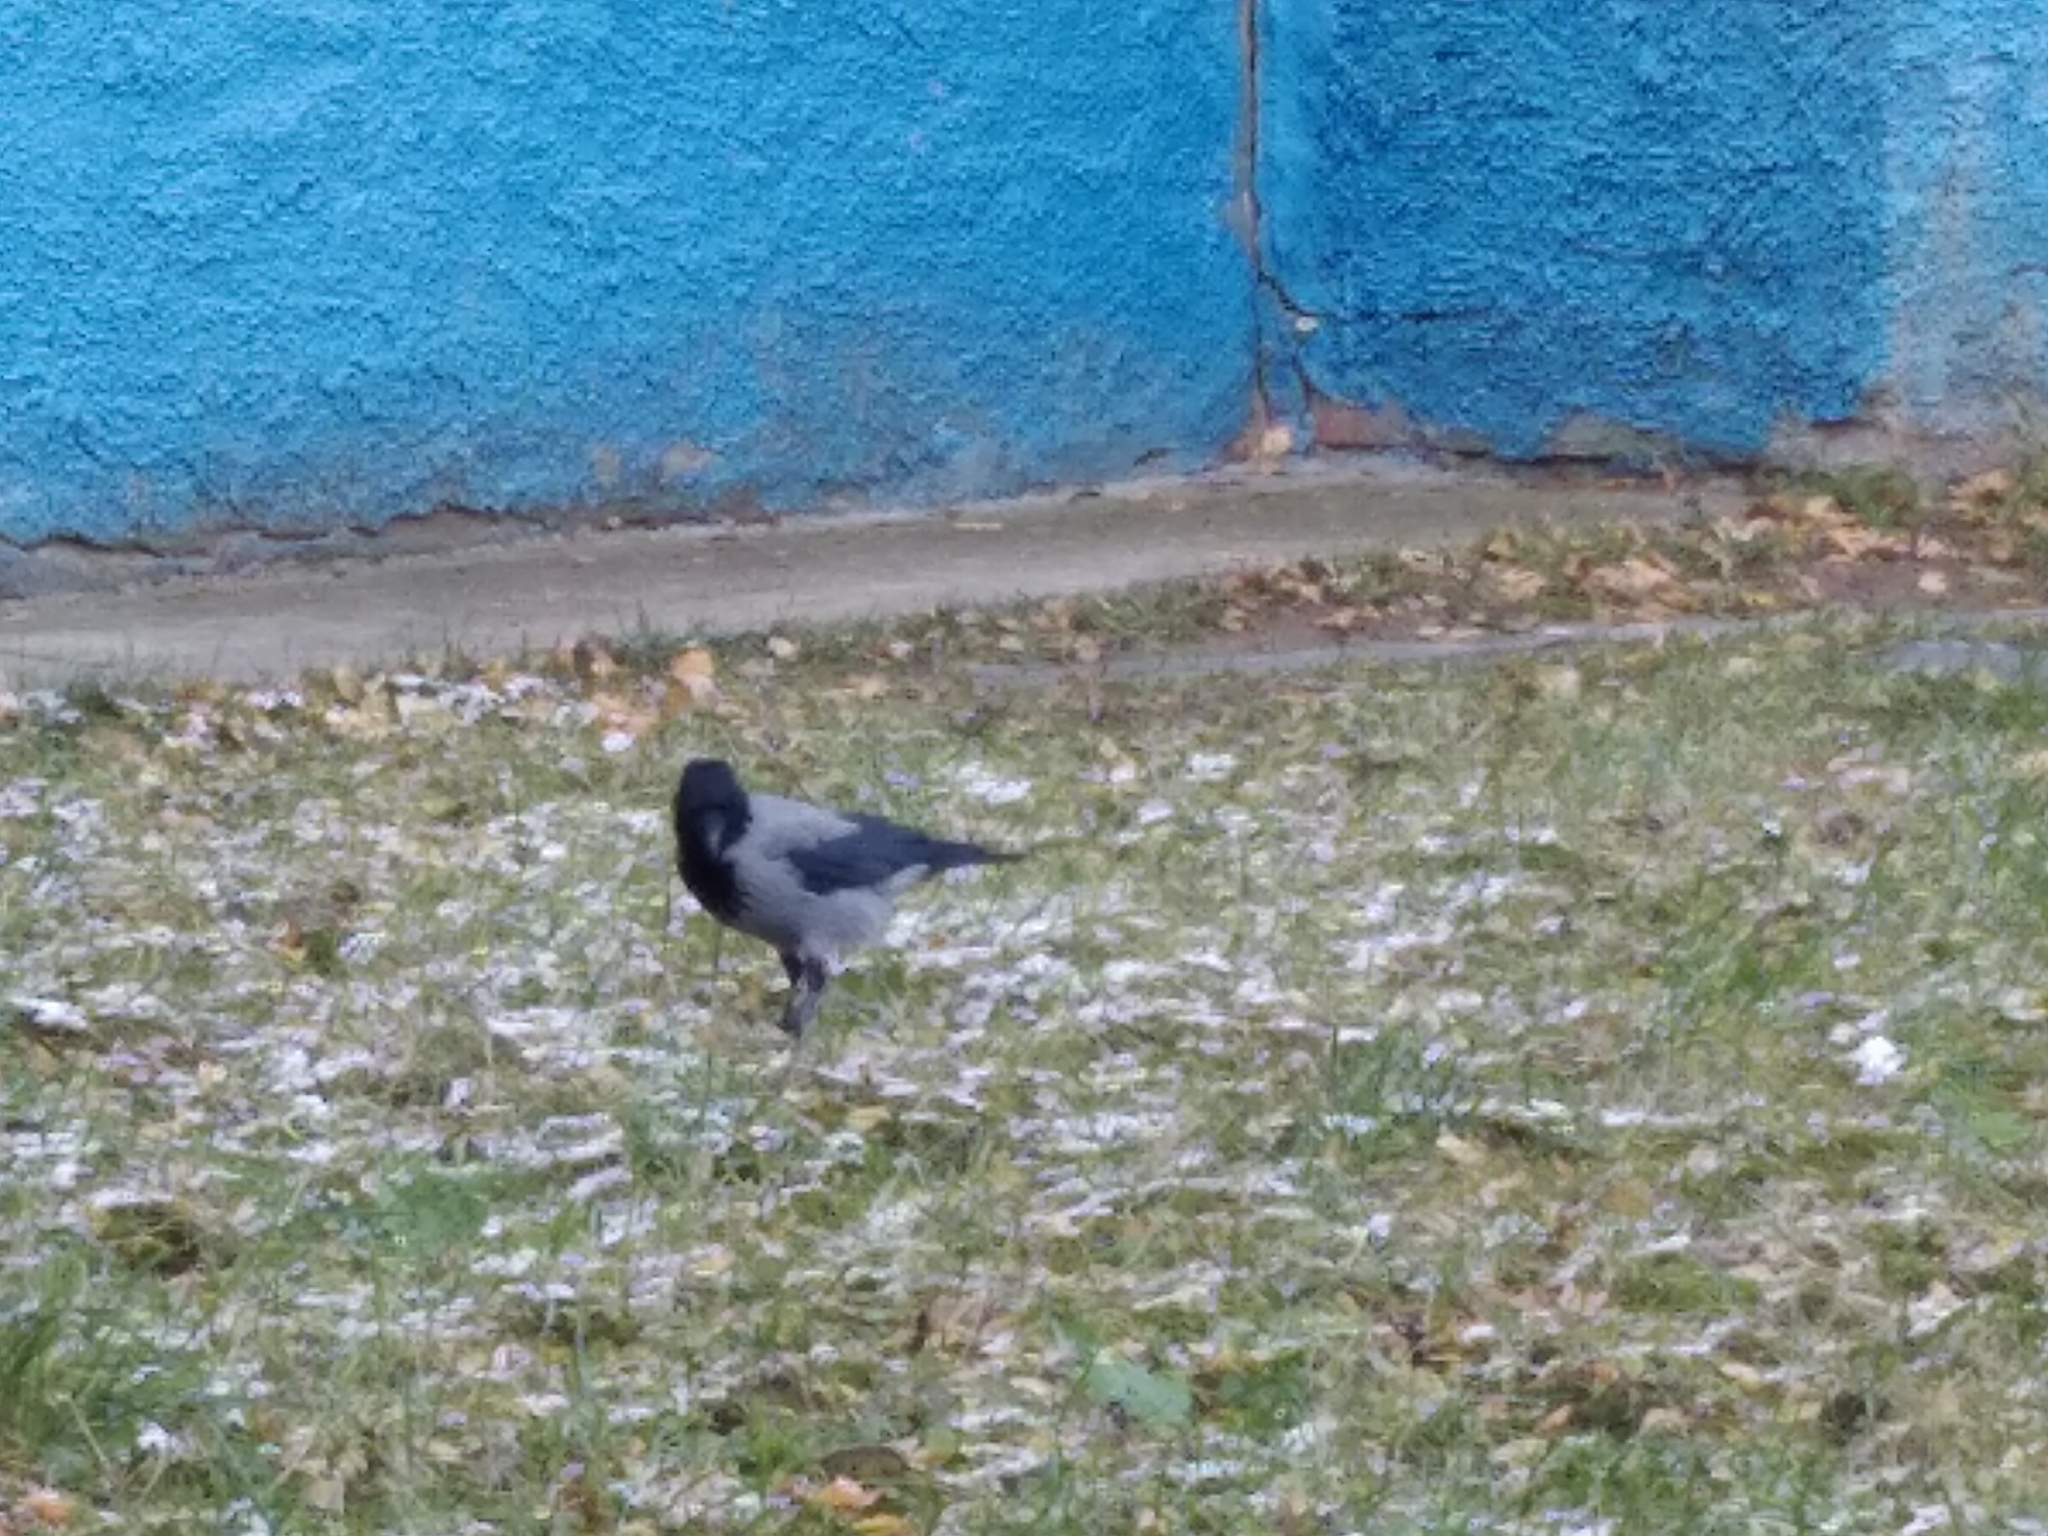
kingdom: Animalia
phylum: Chordata
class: Aves
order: Passeriformes
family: Corvidae
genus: Corvus
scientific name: Corvus cornix
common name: Hooded crow
